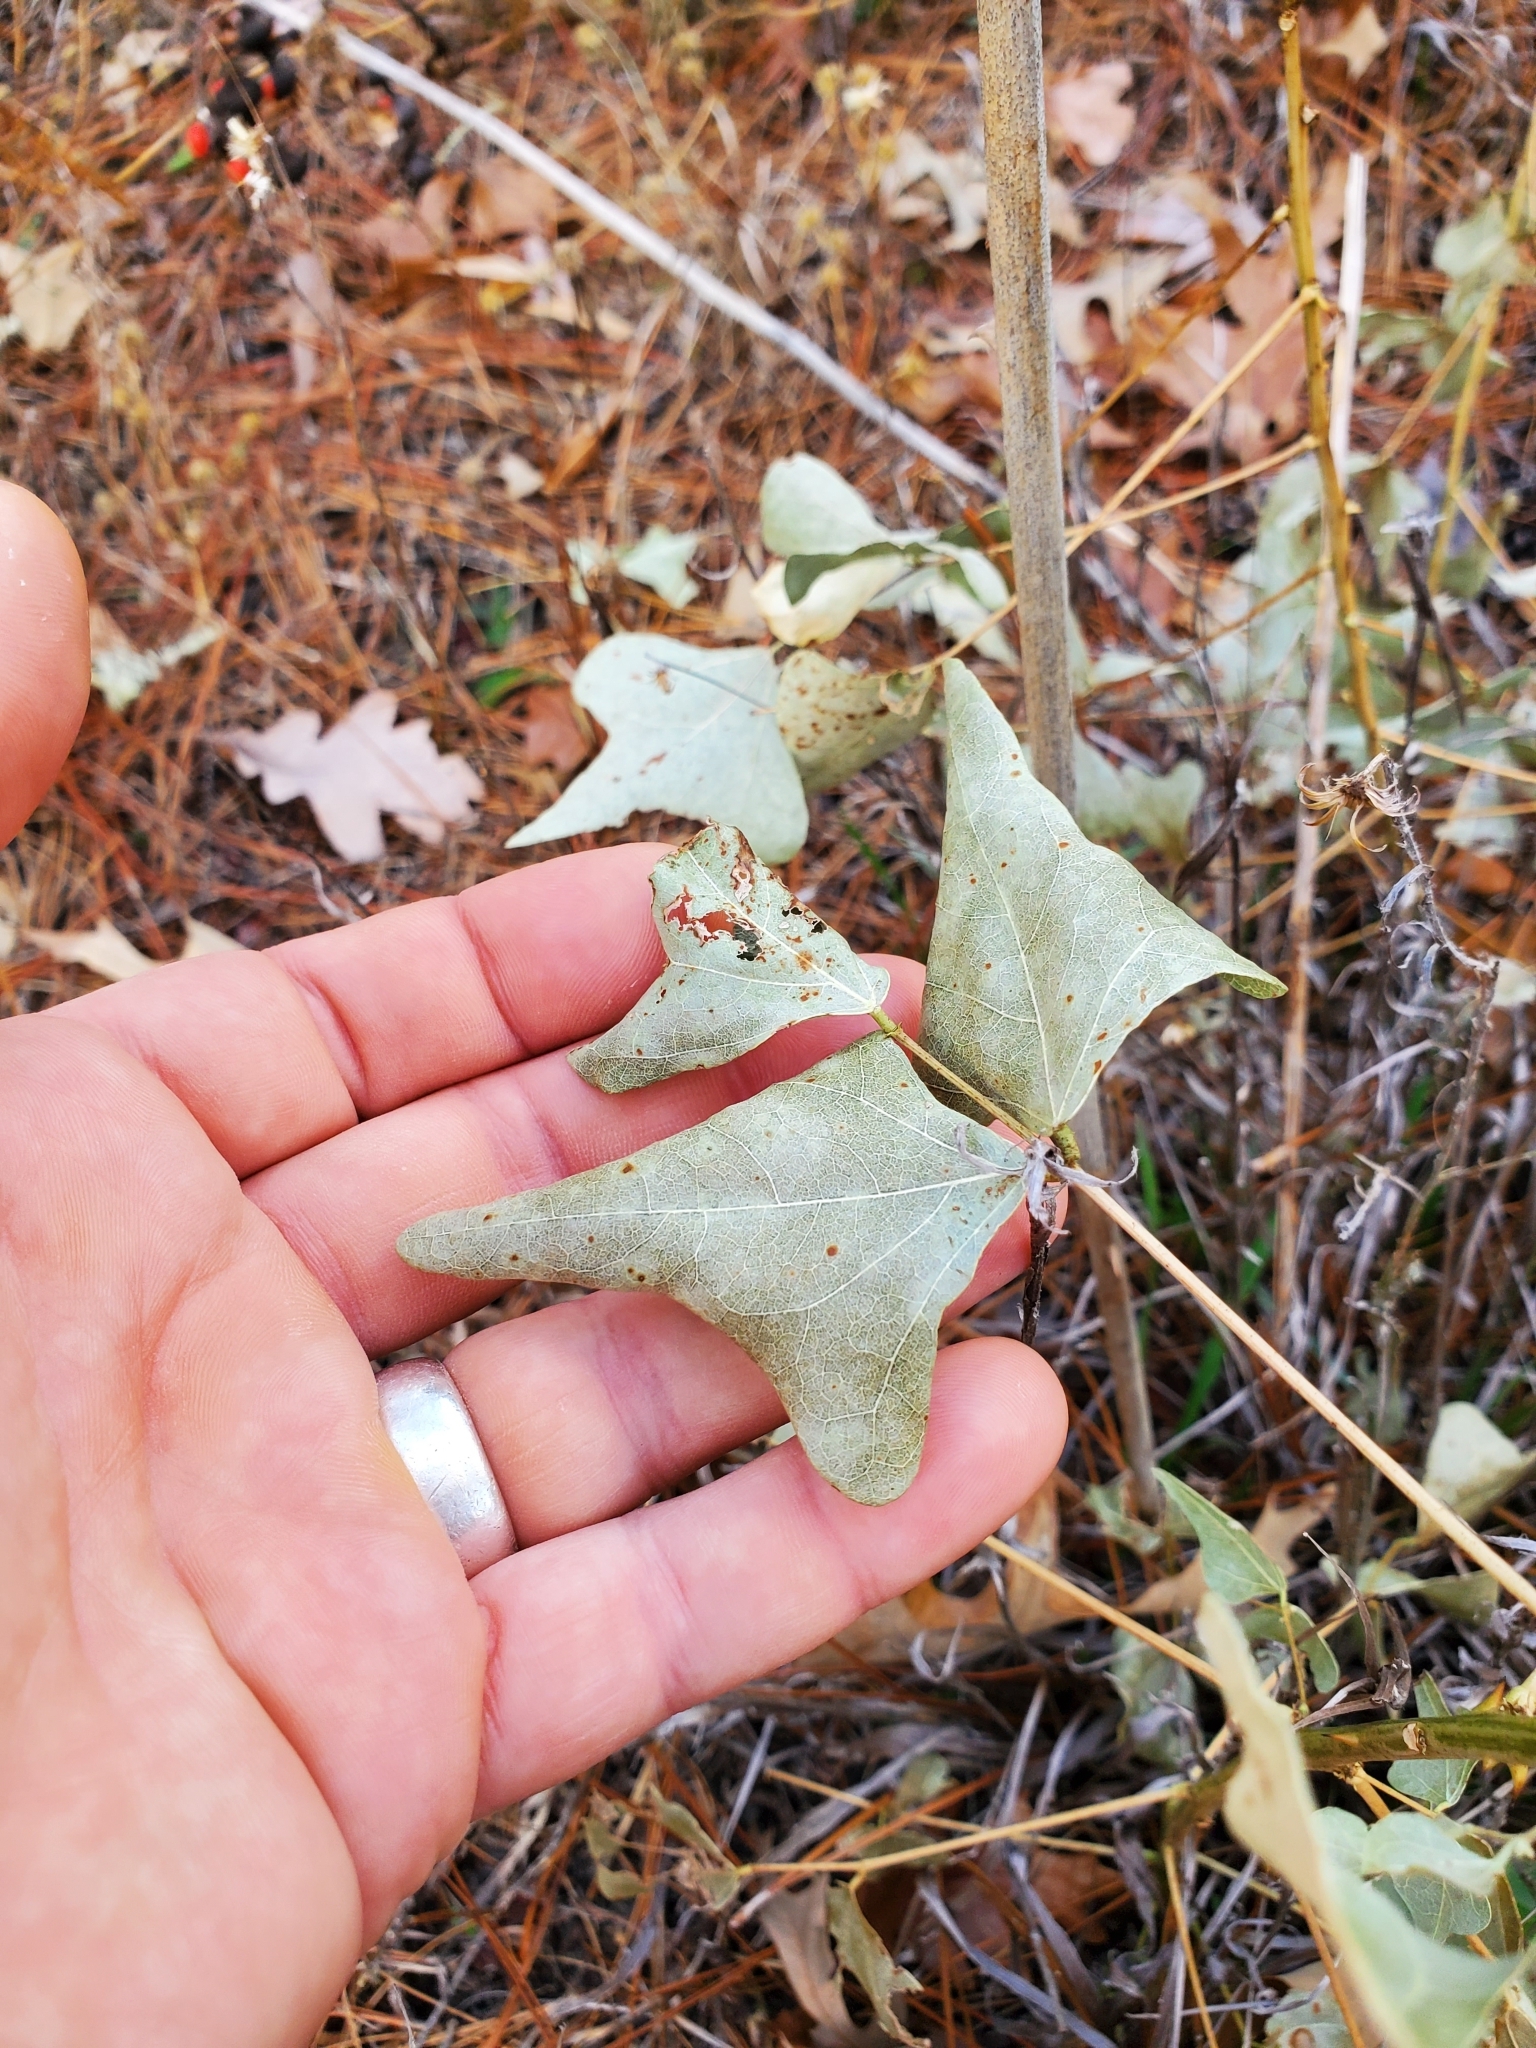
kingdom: Plantae
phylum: Tracheophyta
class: Magnoliopsida
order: Fabales
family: Fabaceae
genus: Erythrina
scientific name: Erythrina herbacea
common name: Coral-bean
